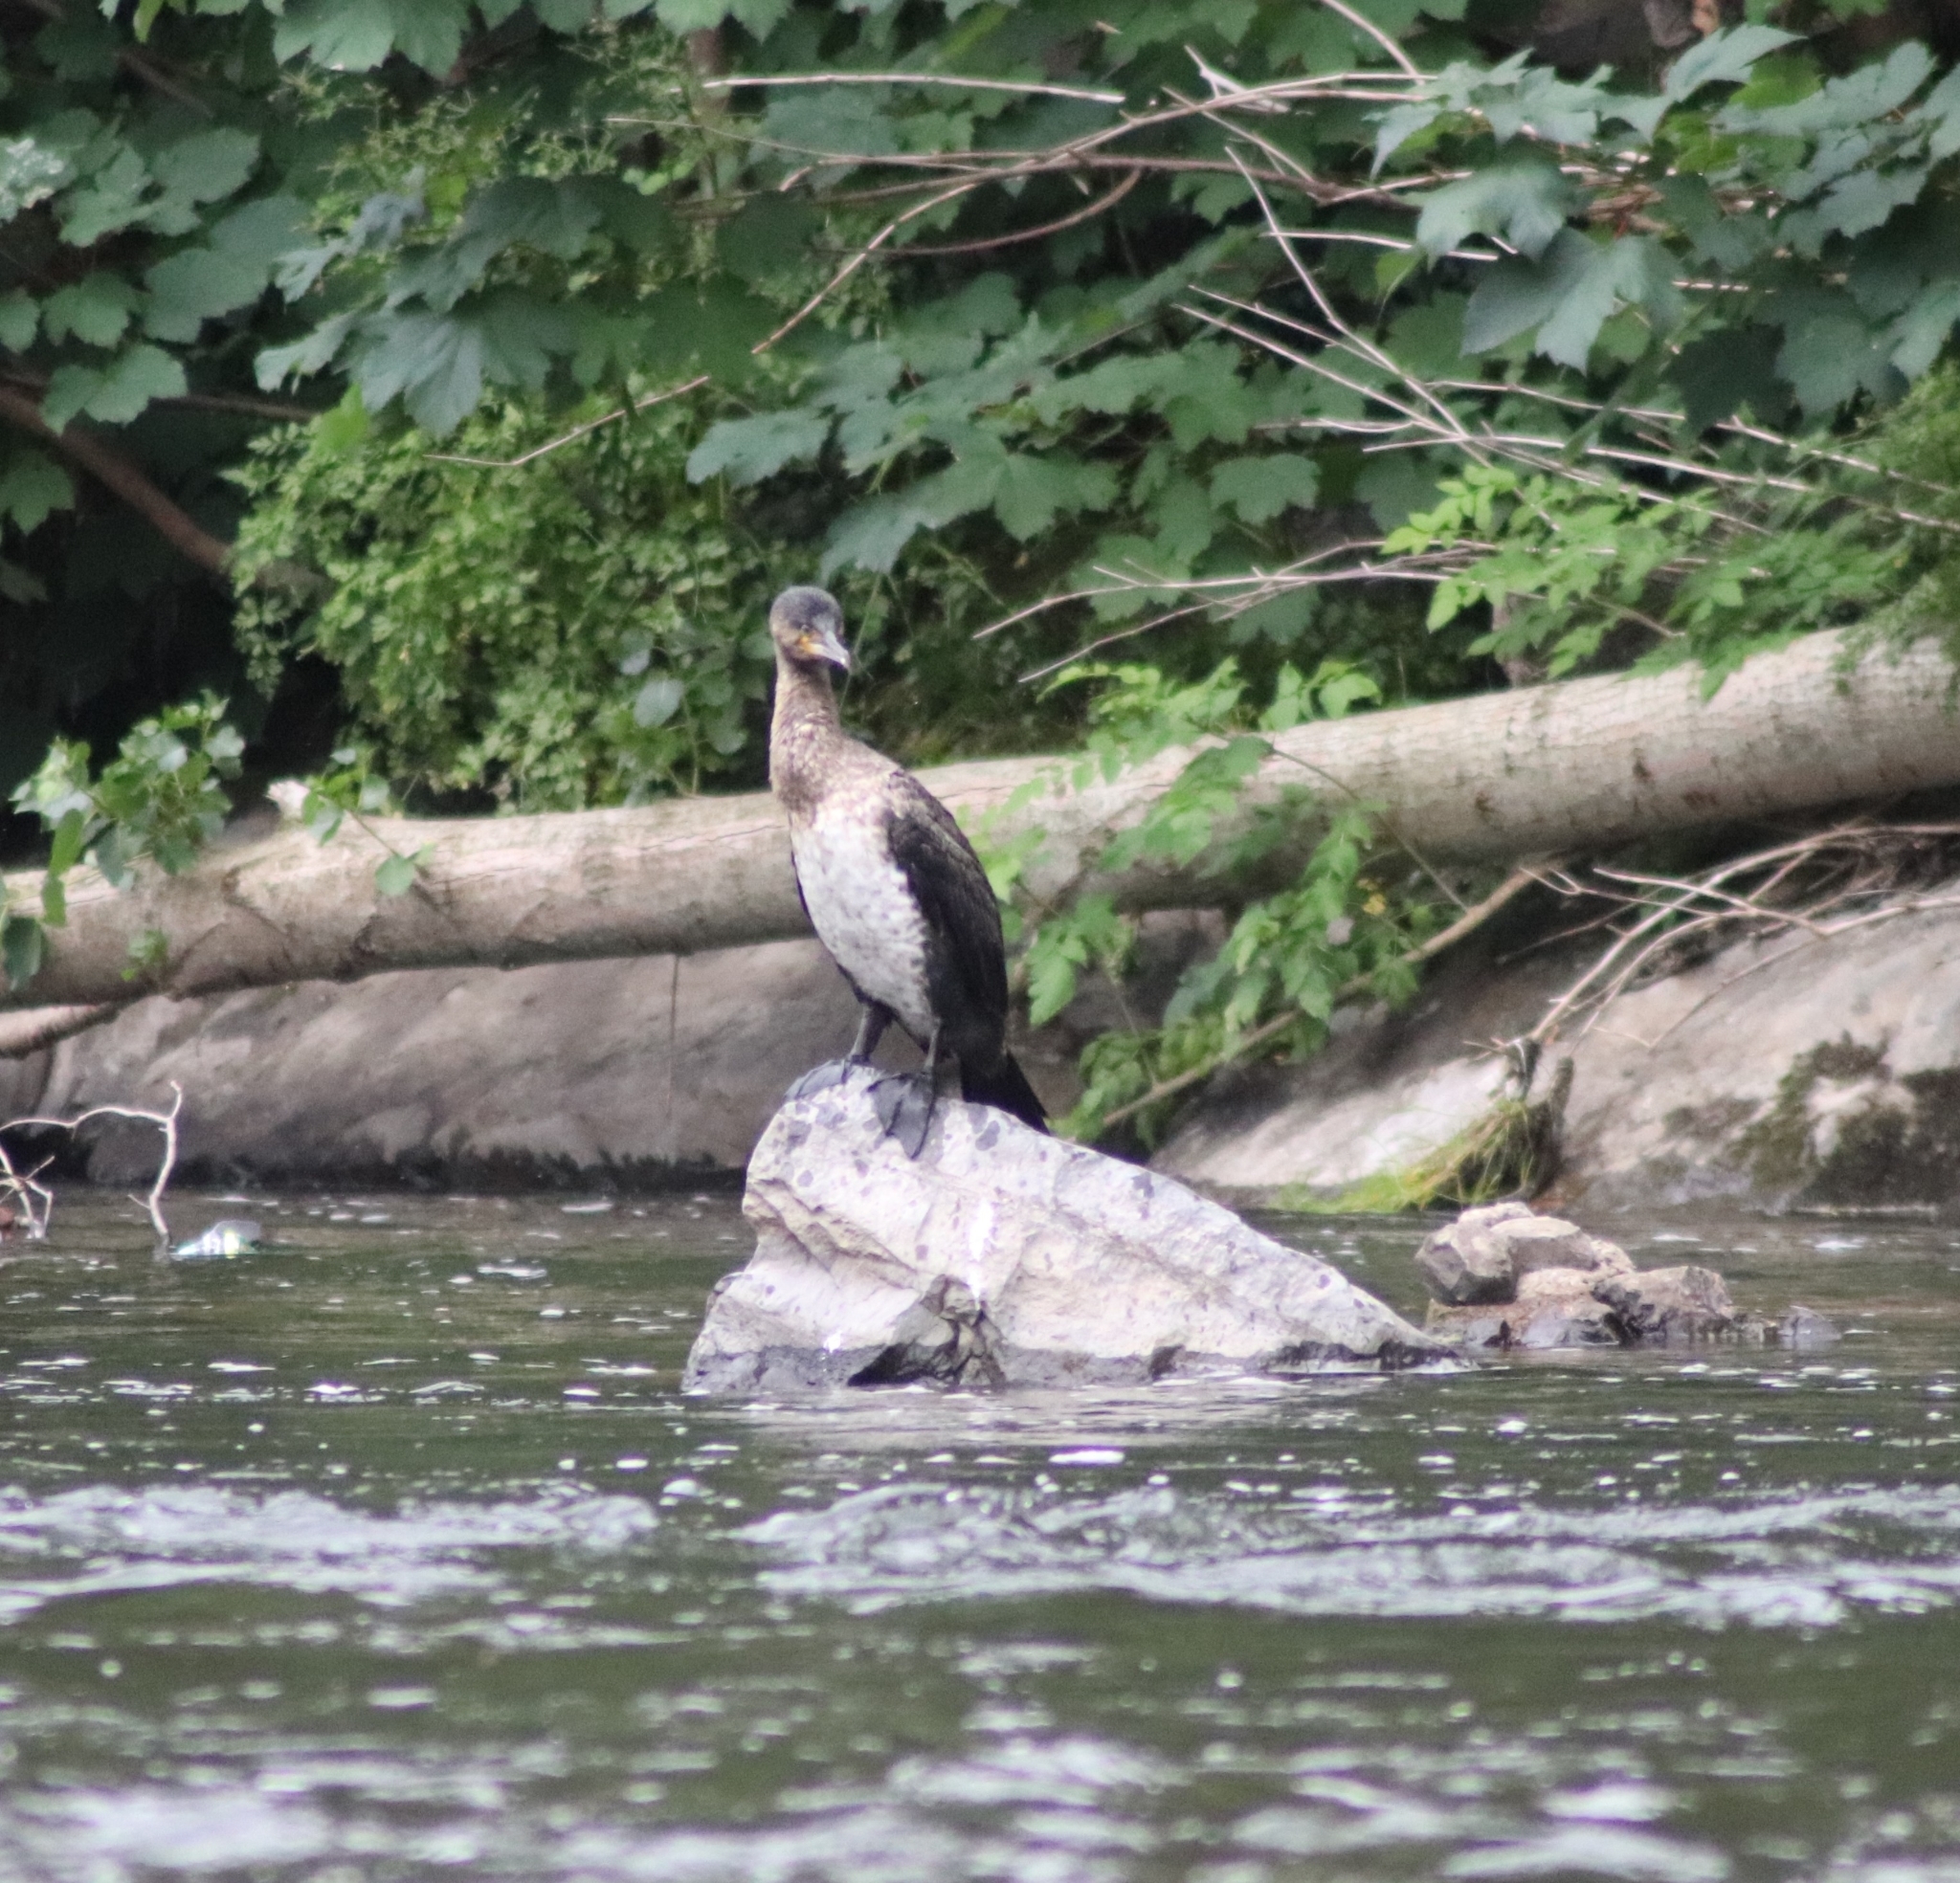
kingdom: Animalia
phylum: Chordata
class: Aves
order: Suliformes
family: Phalacrocoracidae
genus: Phalacrocorax
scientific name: Phalacrocorax carbo
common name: Great cormorant
